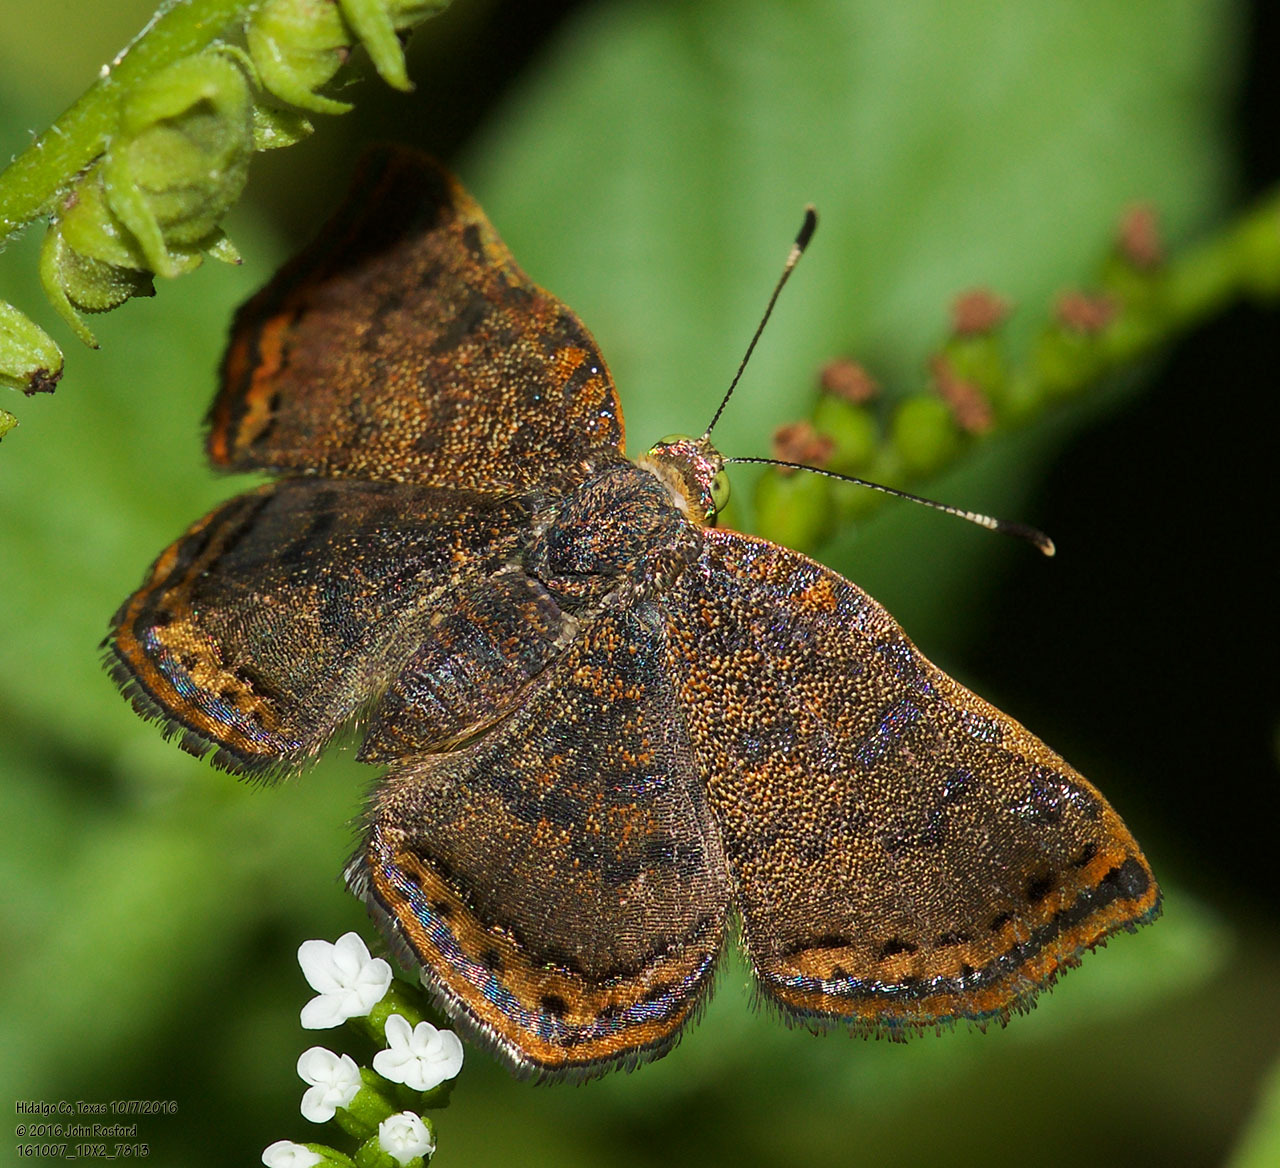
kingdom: Animalia
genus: Caria
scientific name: Caria ino
